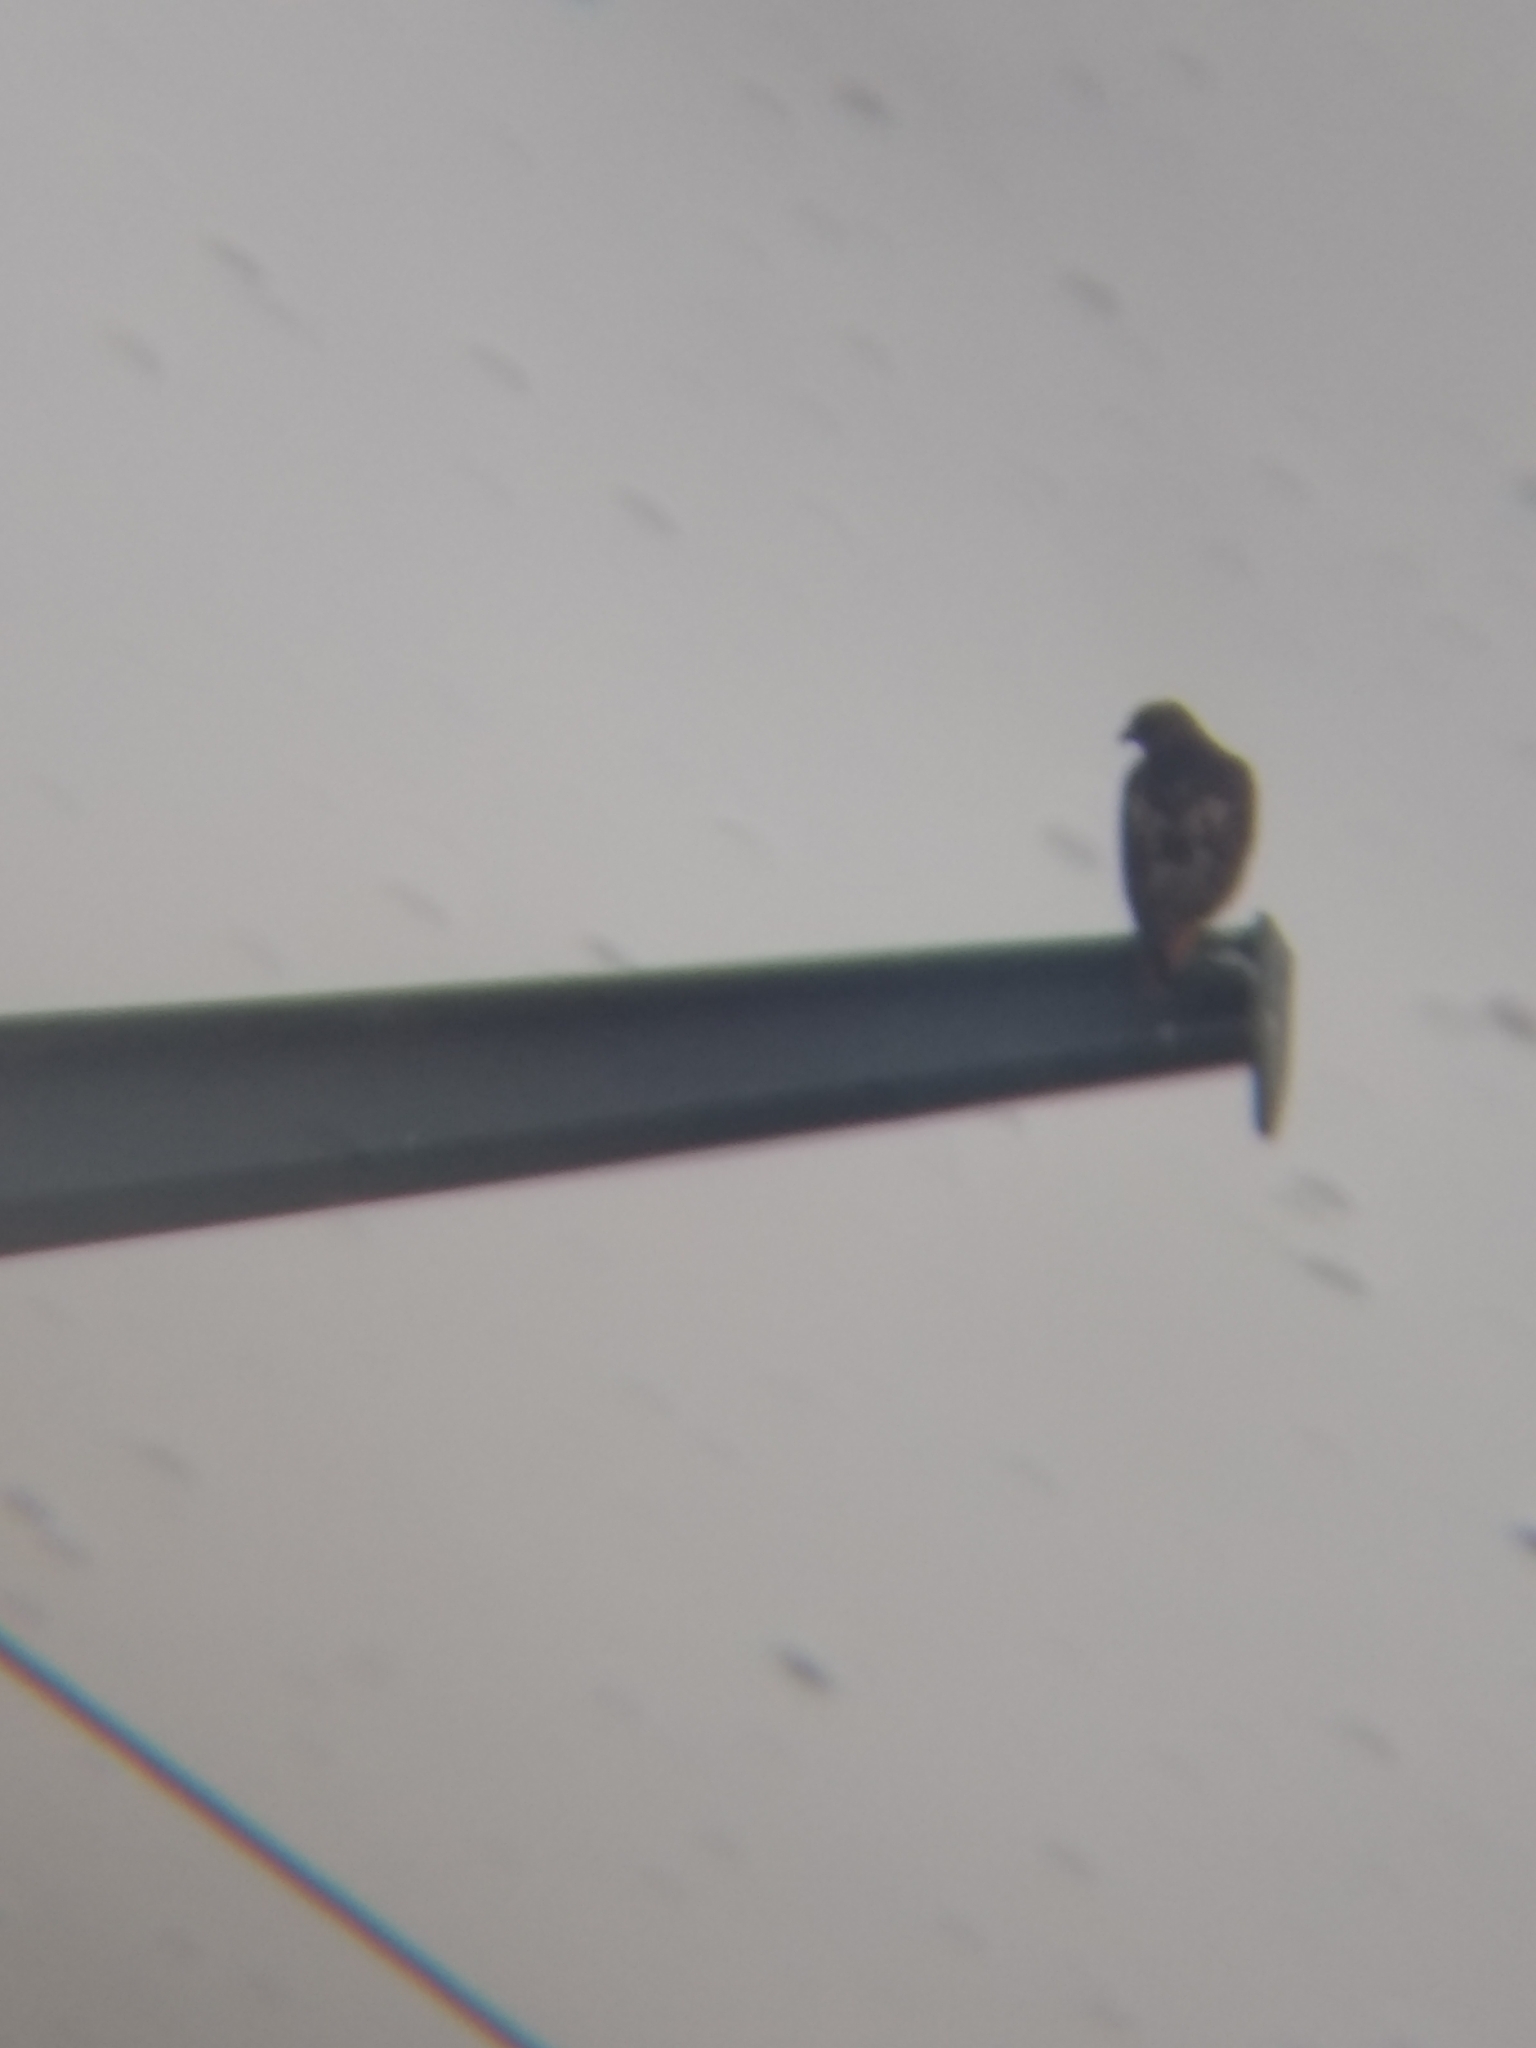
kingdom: Animalia
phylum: Chordata
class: Aves
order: Accipitriformes
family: Accipitridae
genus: Buteo
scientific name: Buteo jamaicensis
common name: Red-tailed hawk
